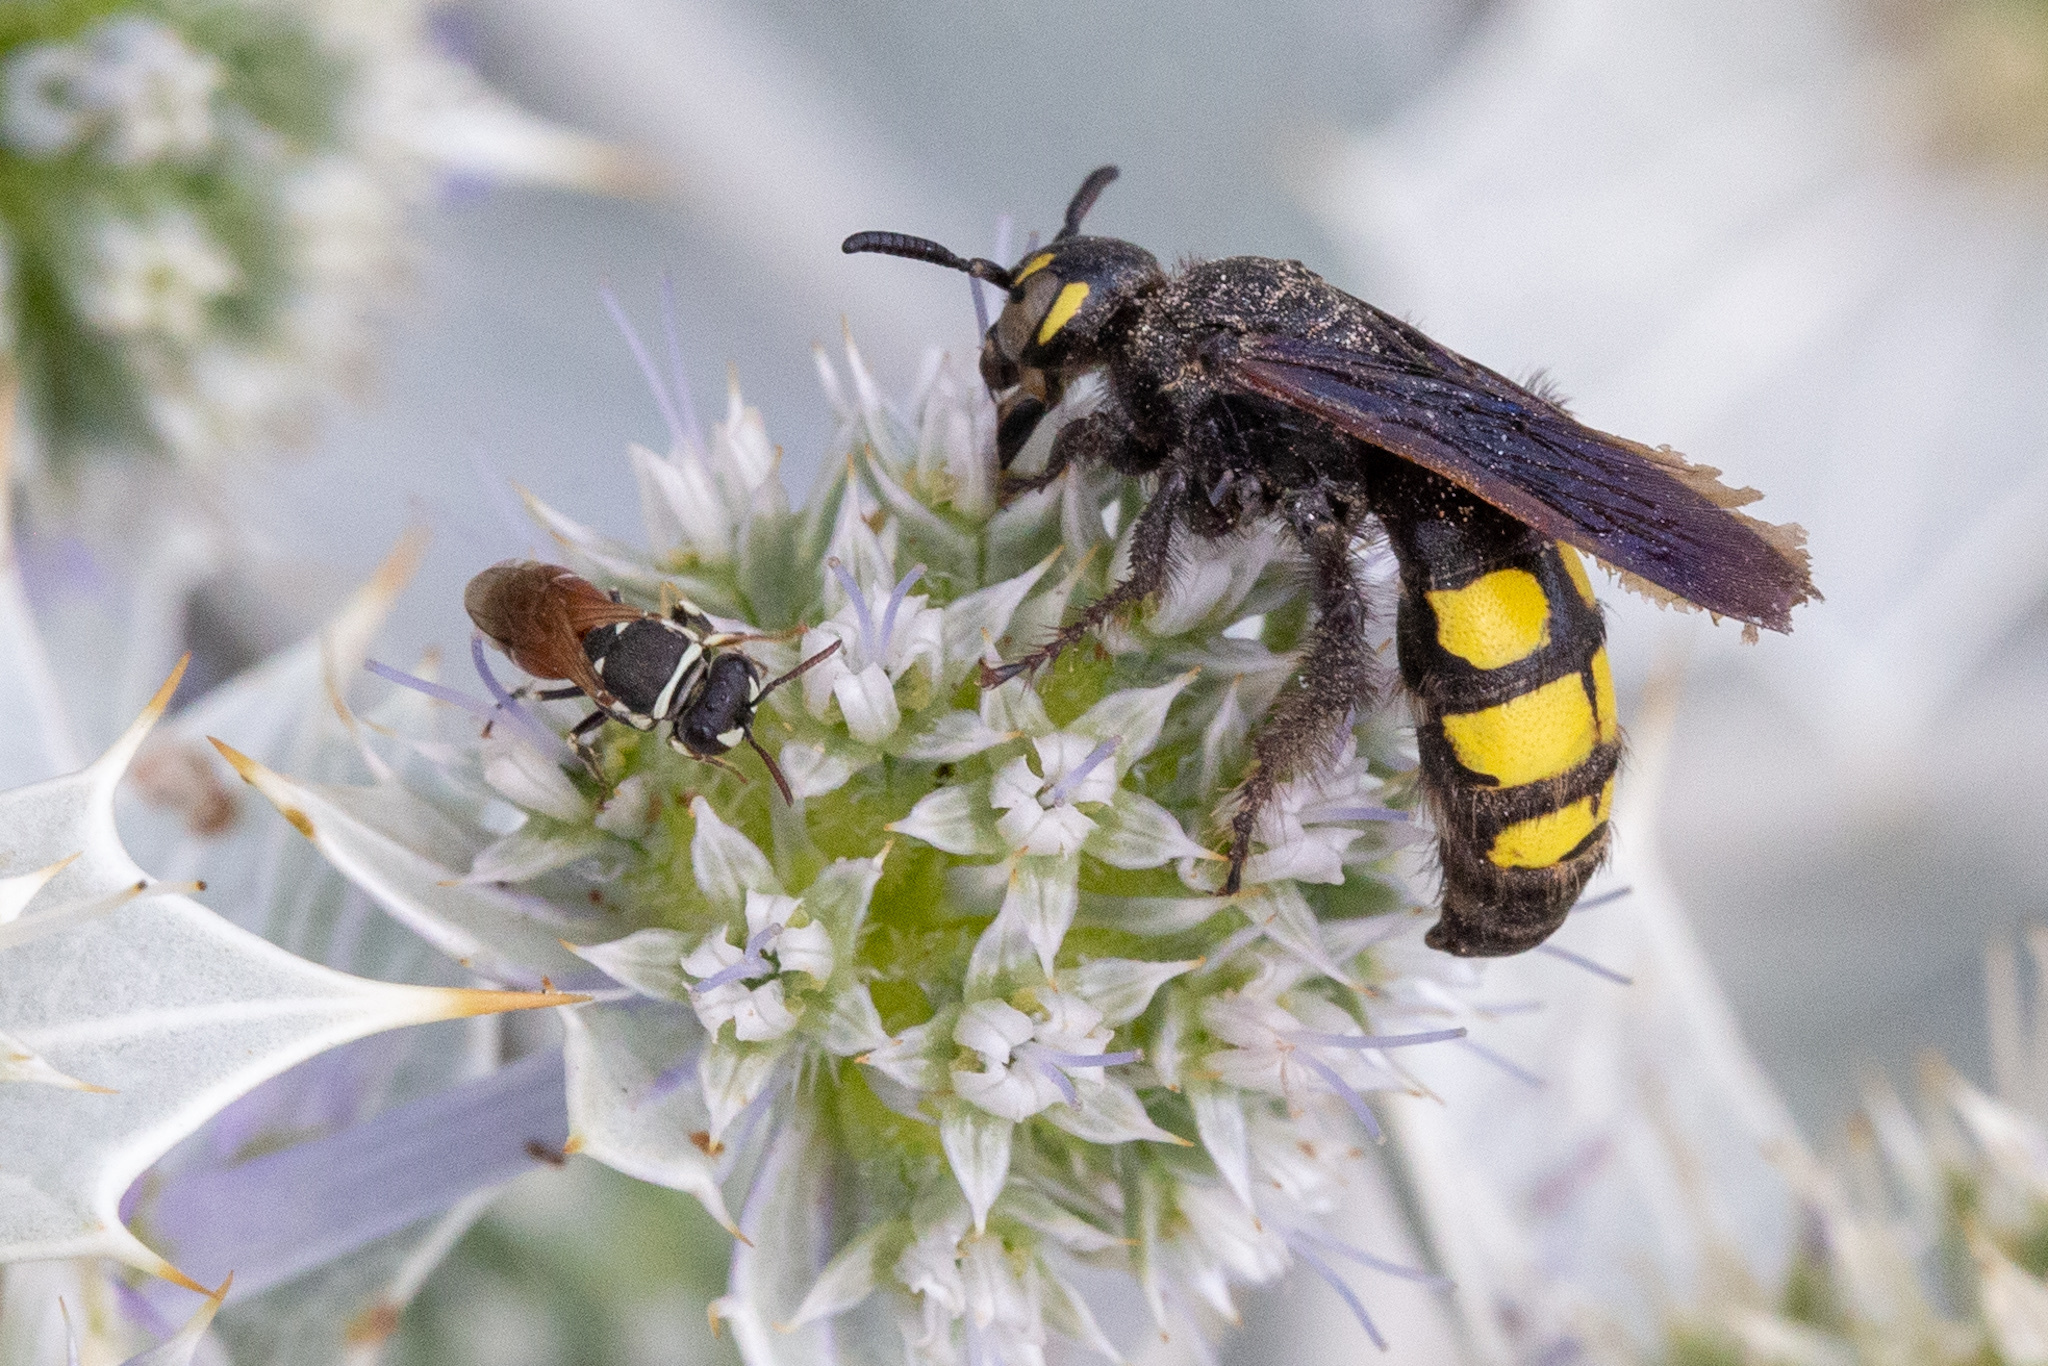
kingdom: Animalia
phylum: Arthropoda
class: Insecta
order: Hymenoptera
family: Vespidae
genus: Vespa
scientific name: Vespa sexmaculata
